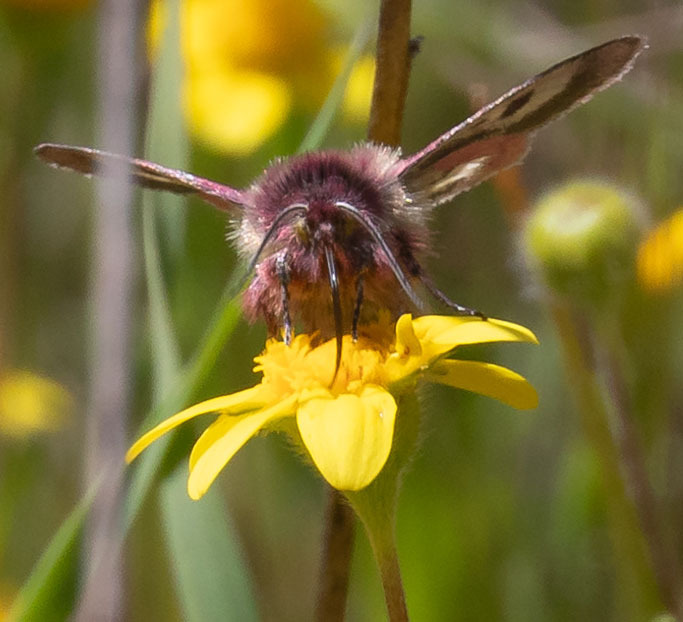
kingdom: Animalia
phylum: Arthropoda
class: Insecta
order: Lepidoptera
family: Noctuidae
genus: Schinia
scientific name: Schinia pulchripennis
